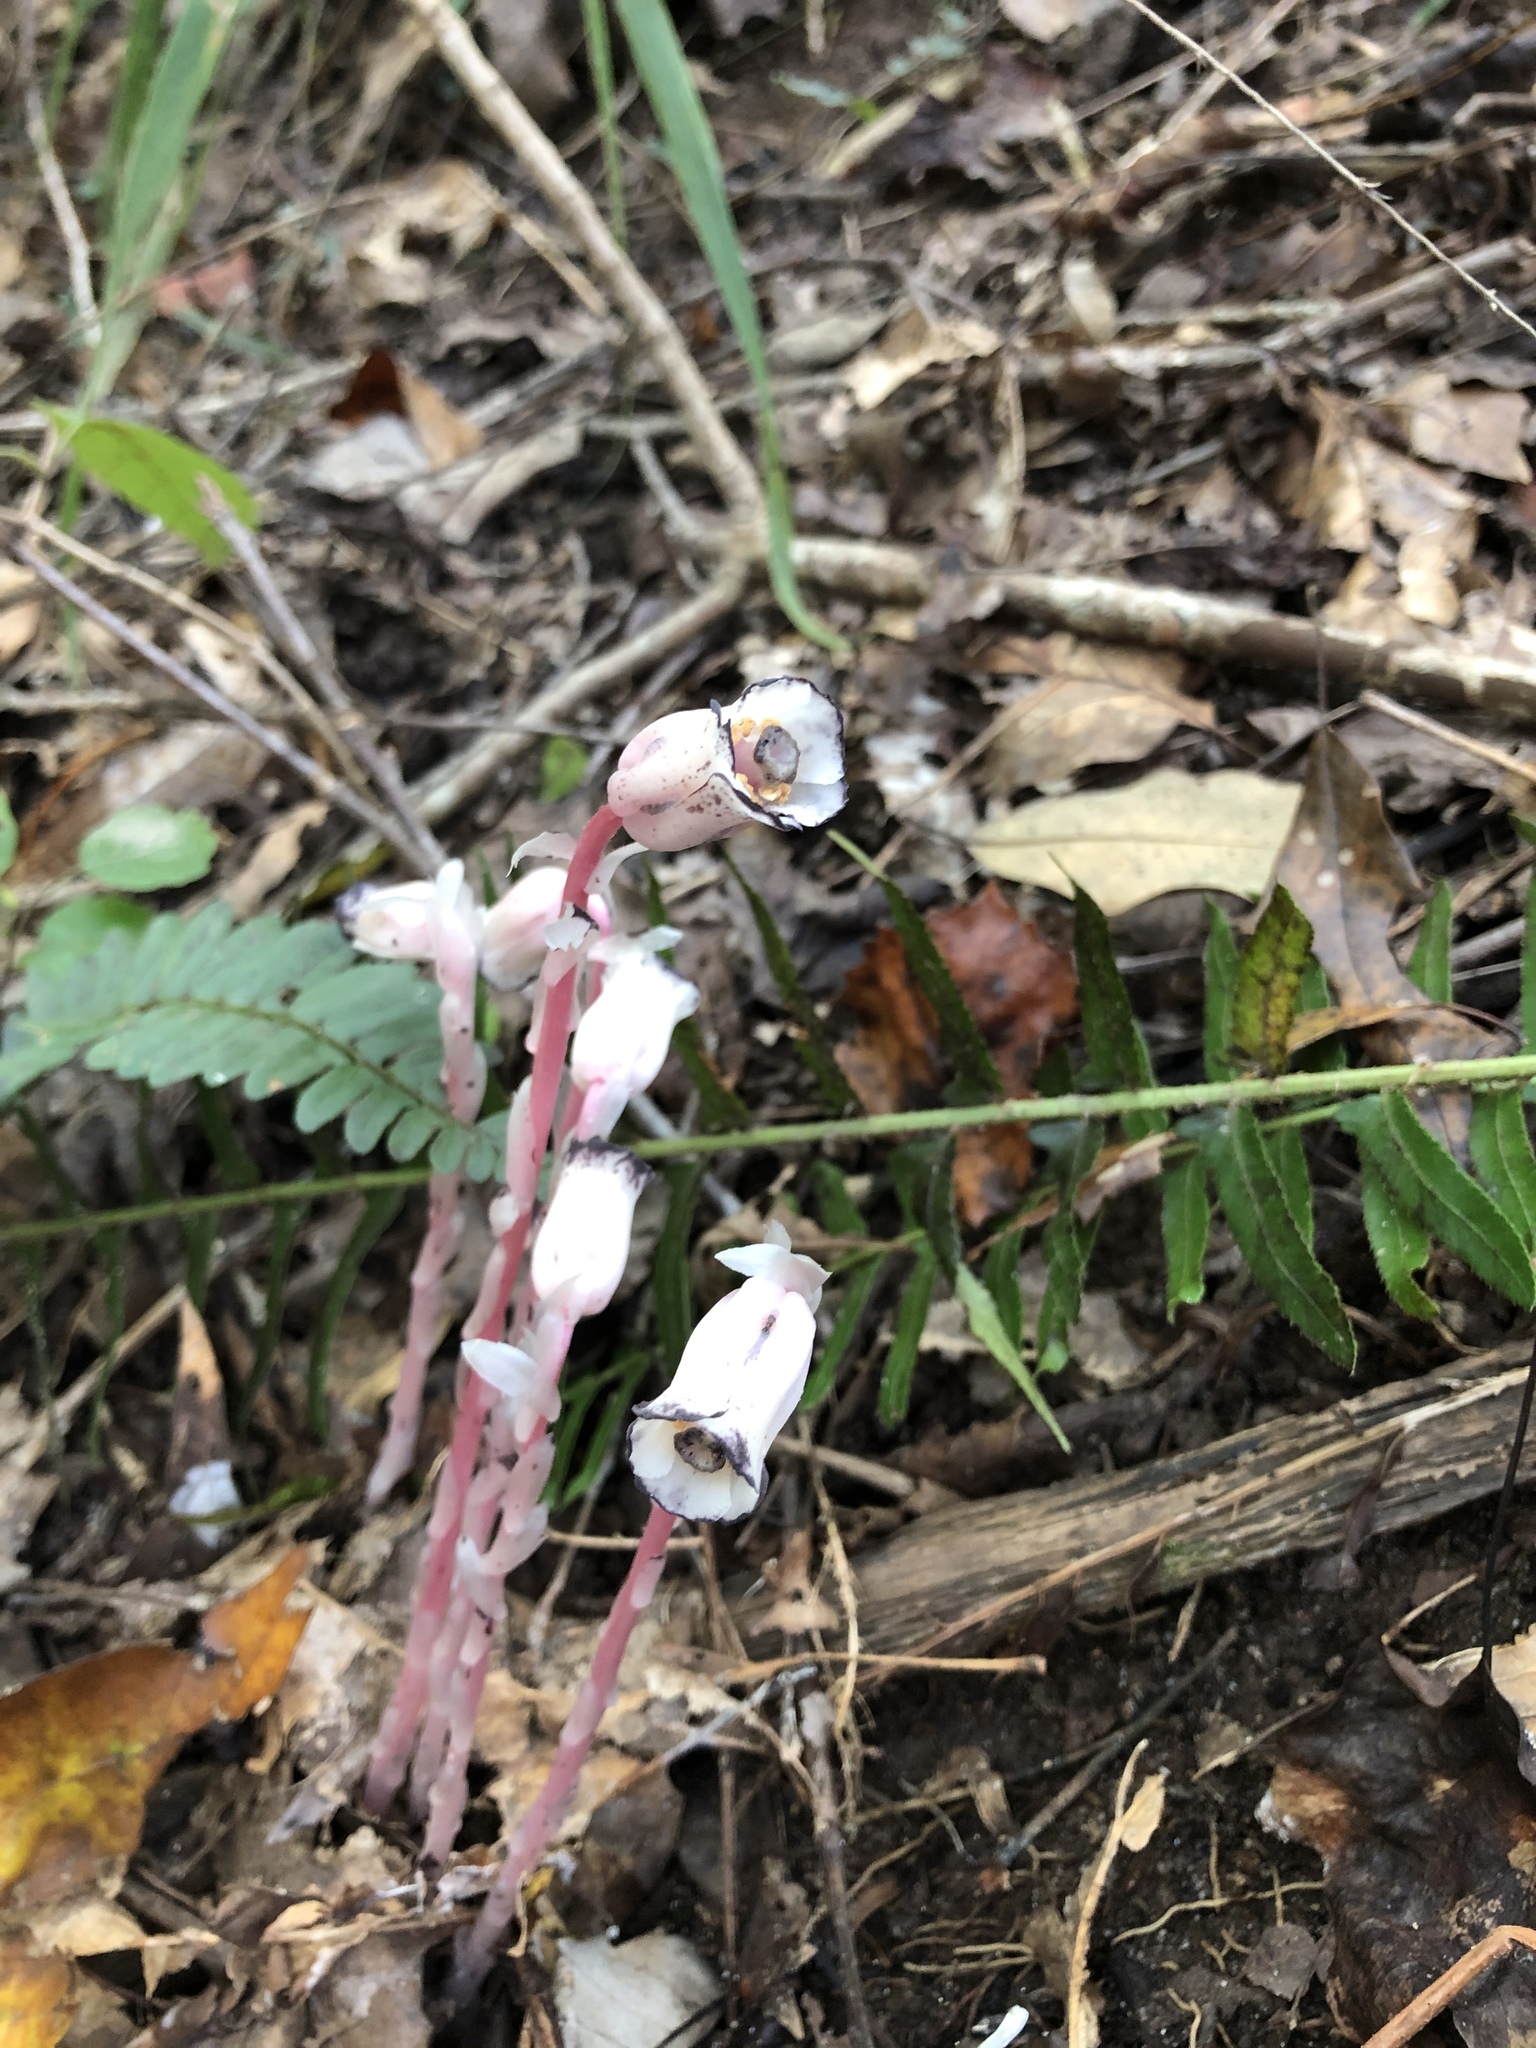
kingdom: Plantae
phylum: Tracheophyta
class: Magnoliopsida
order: Ericales
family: Ericaceae
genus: Monotropa
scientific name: Monotropa uniflora
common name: Convulsion root
